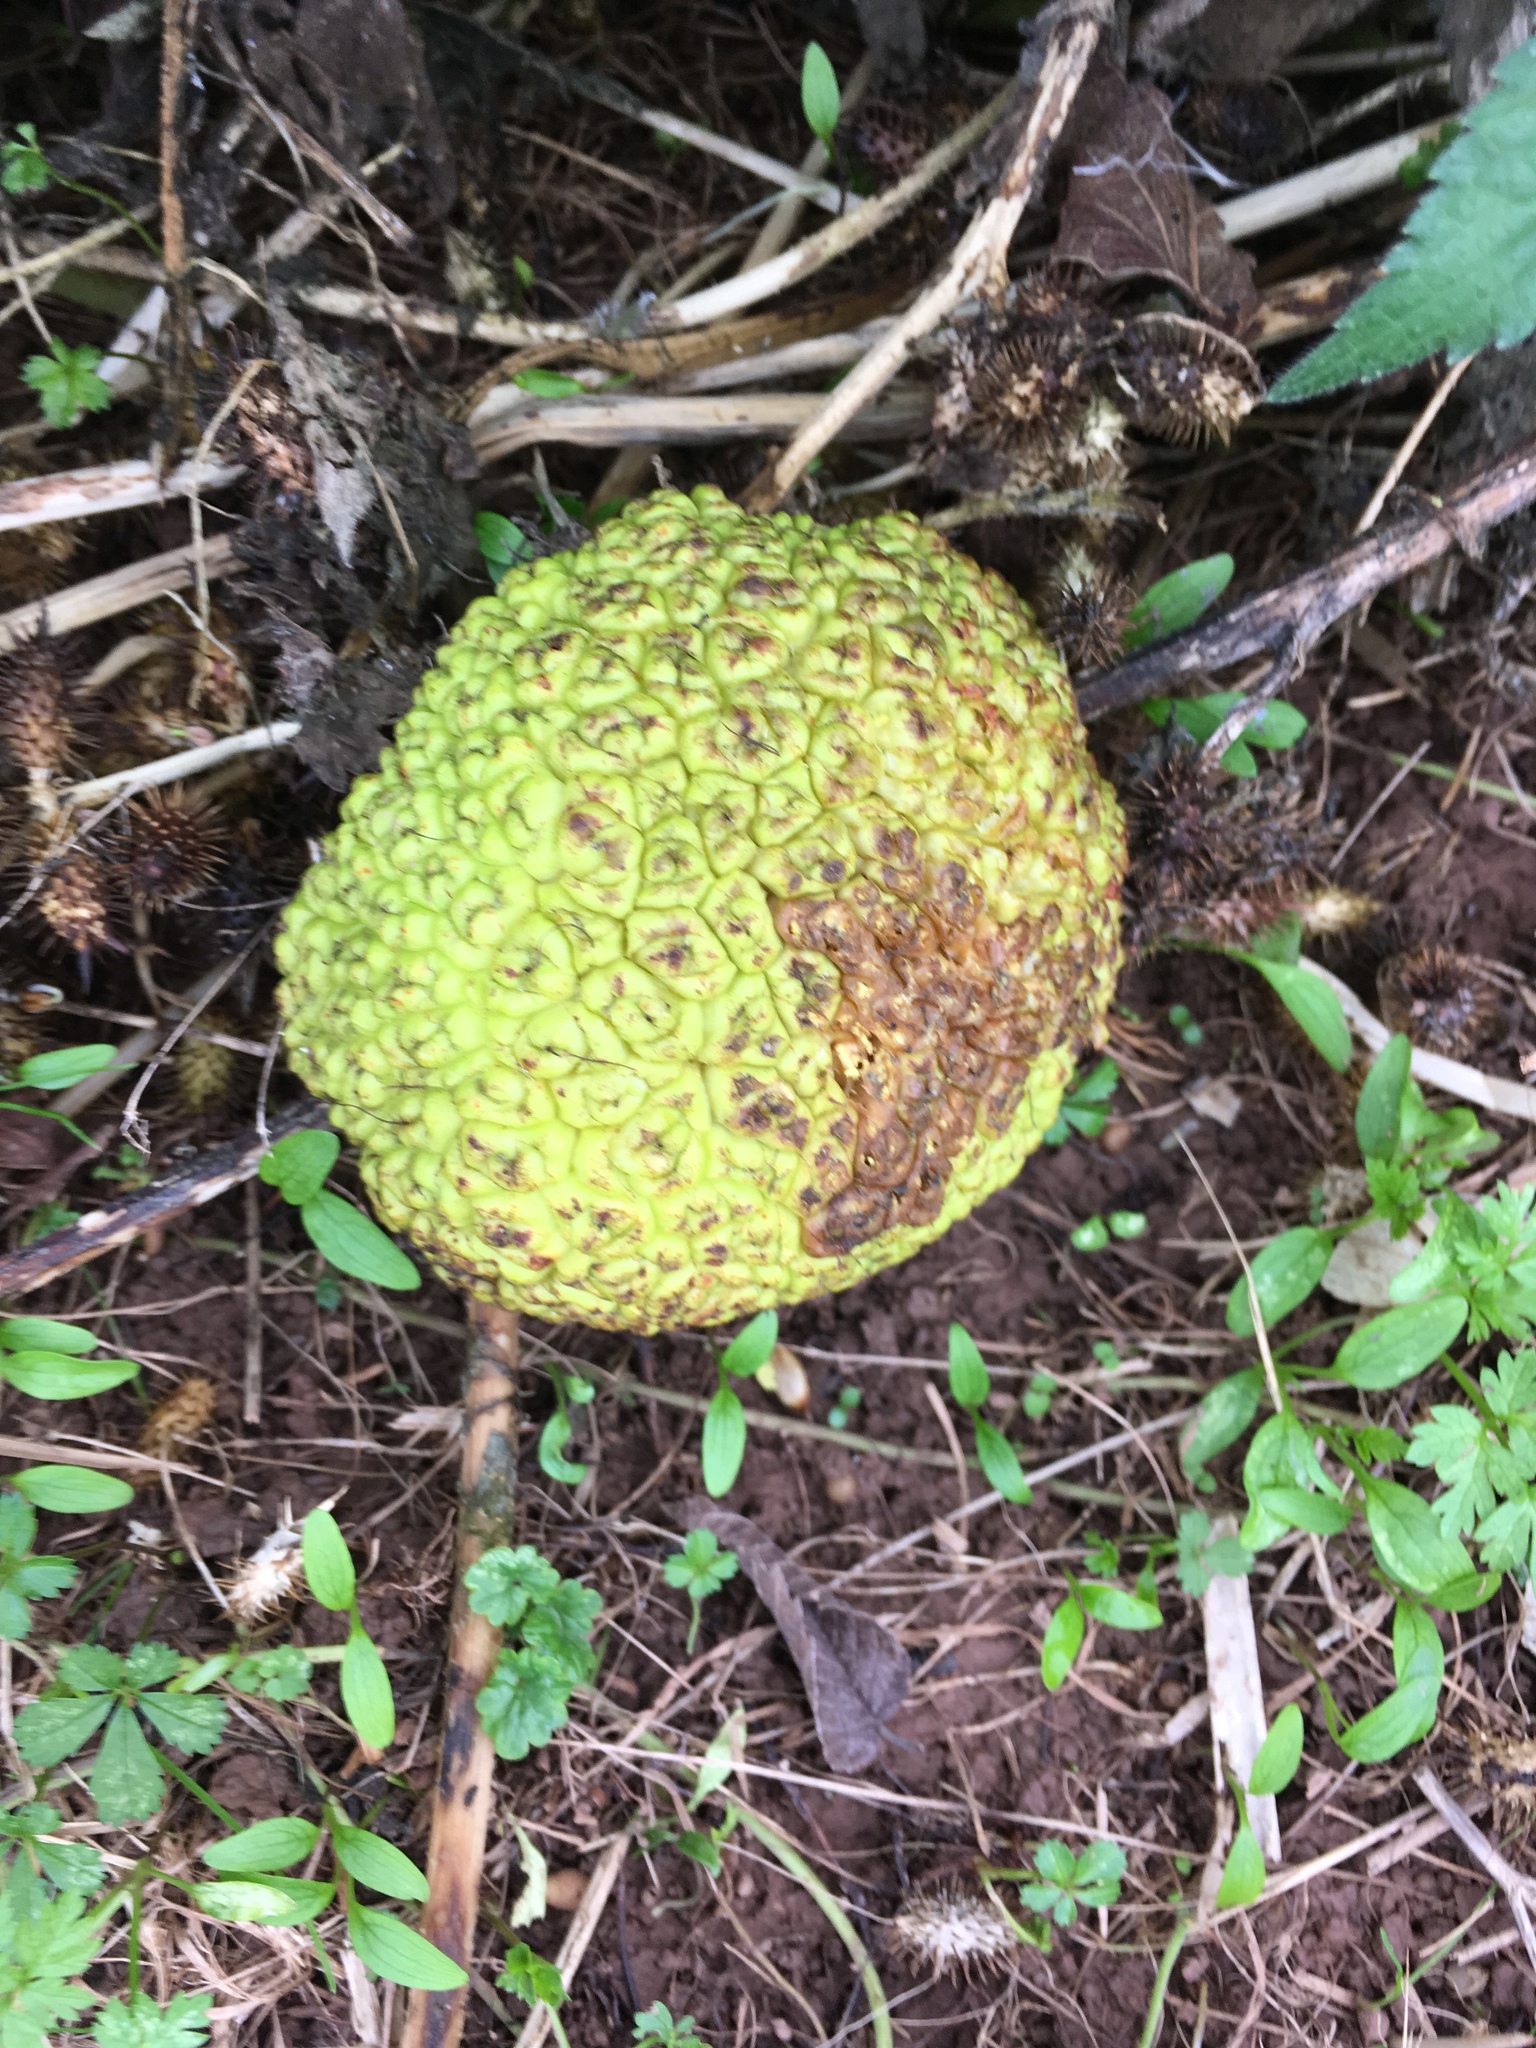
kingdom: Plantae
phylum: Tracheophyta
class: Magnoliopsida
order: Rosales
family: Moraceae
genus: Maclura
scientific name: Maclura pomifera
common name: Osage-orange
